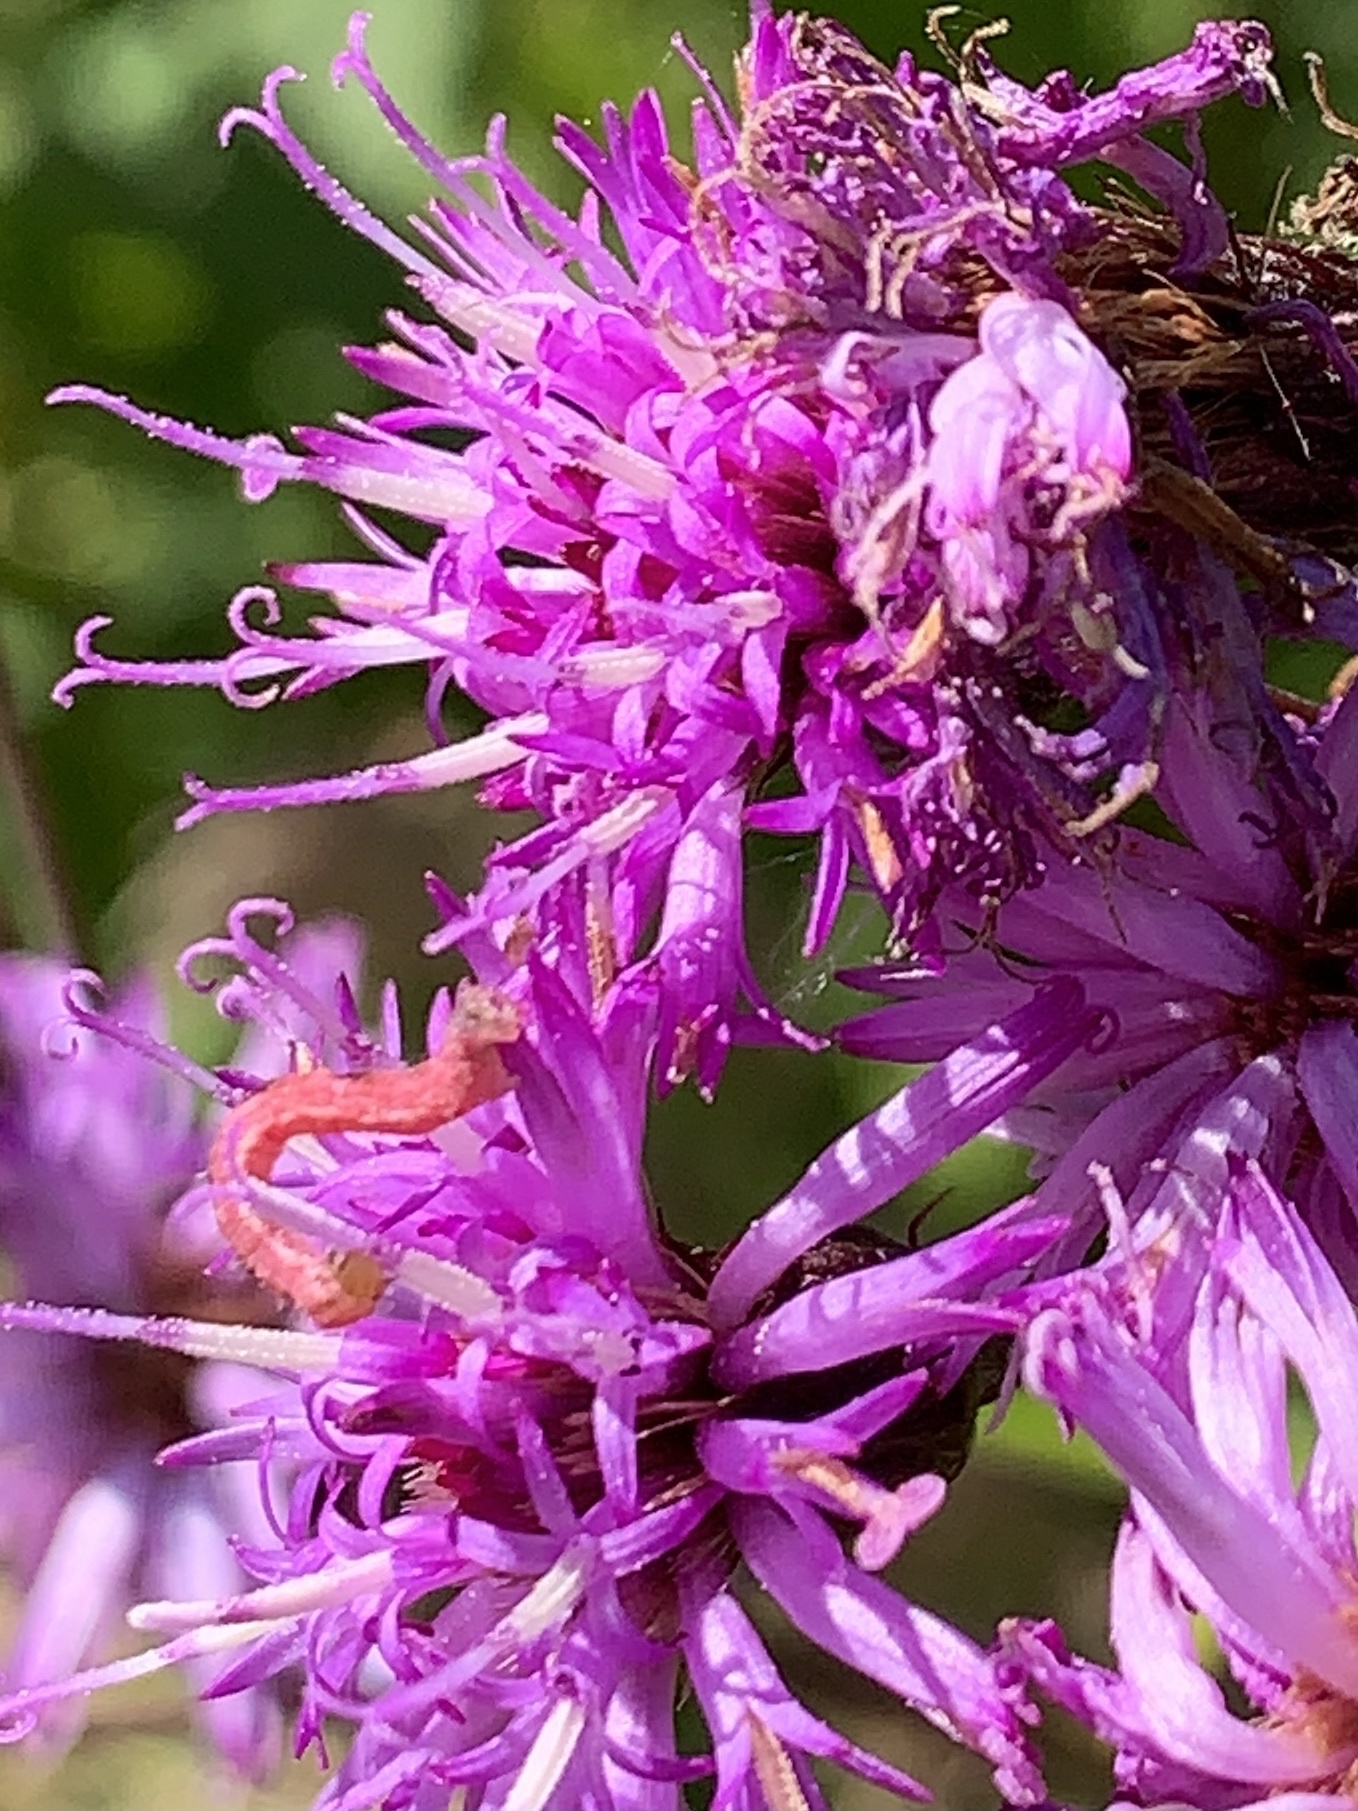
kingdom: Plantae
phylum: Tracheophyta
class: Magnoliopsida
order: Asterales
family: Asteraceae
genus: Vernonia
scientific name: Vernonia noveboracensis
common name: New york ironweed
